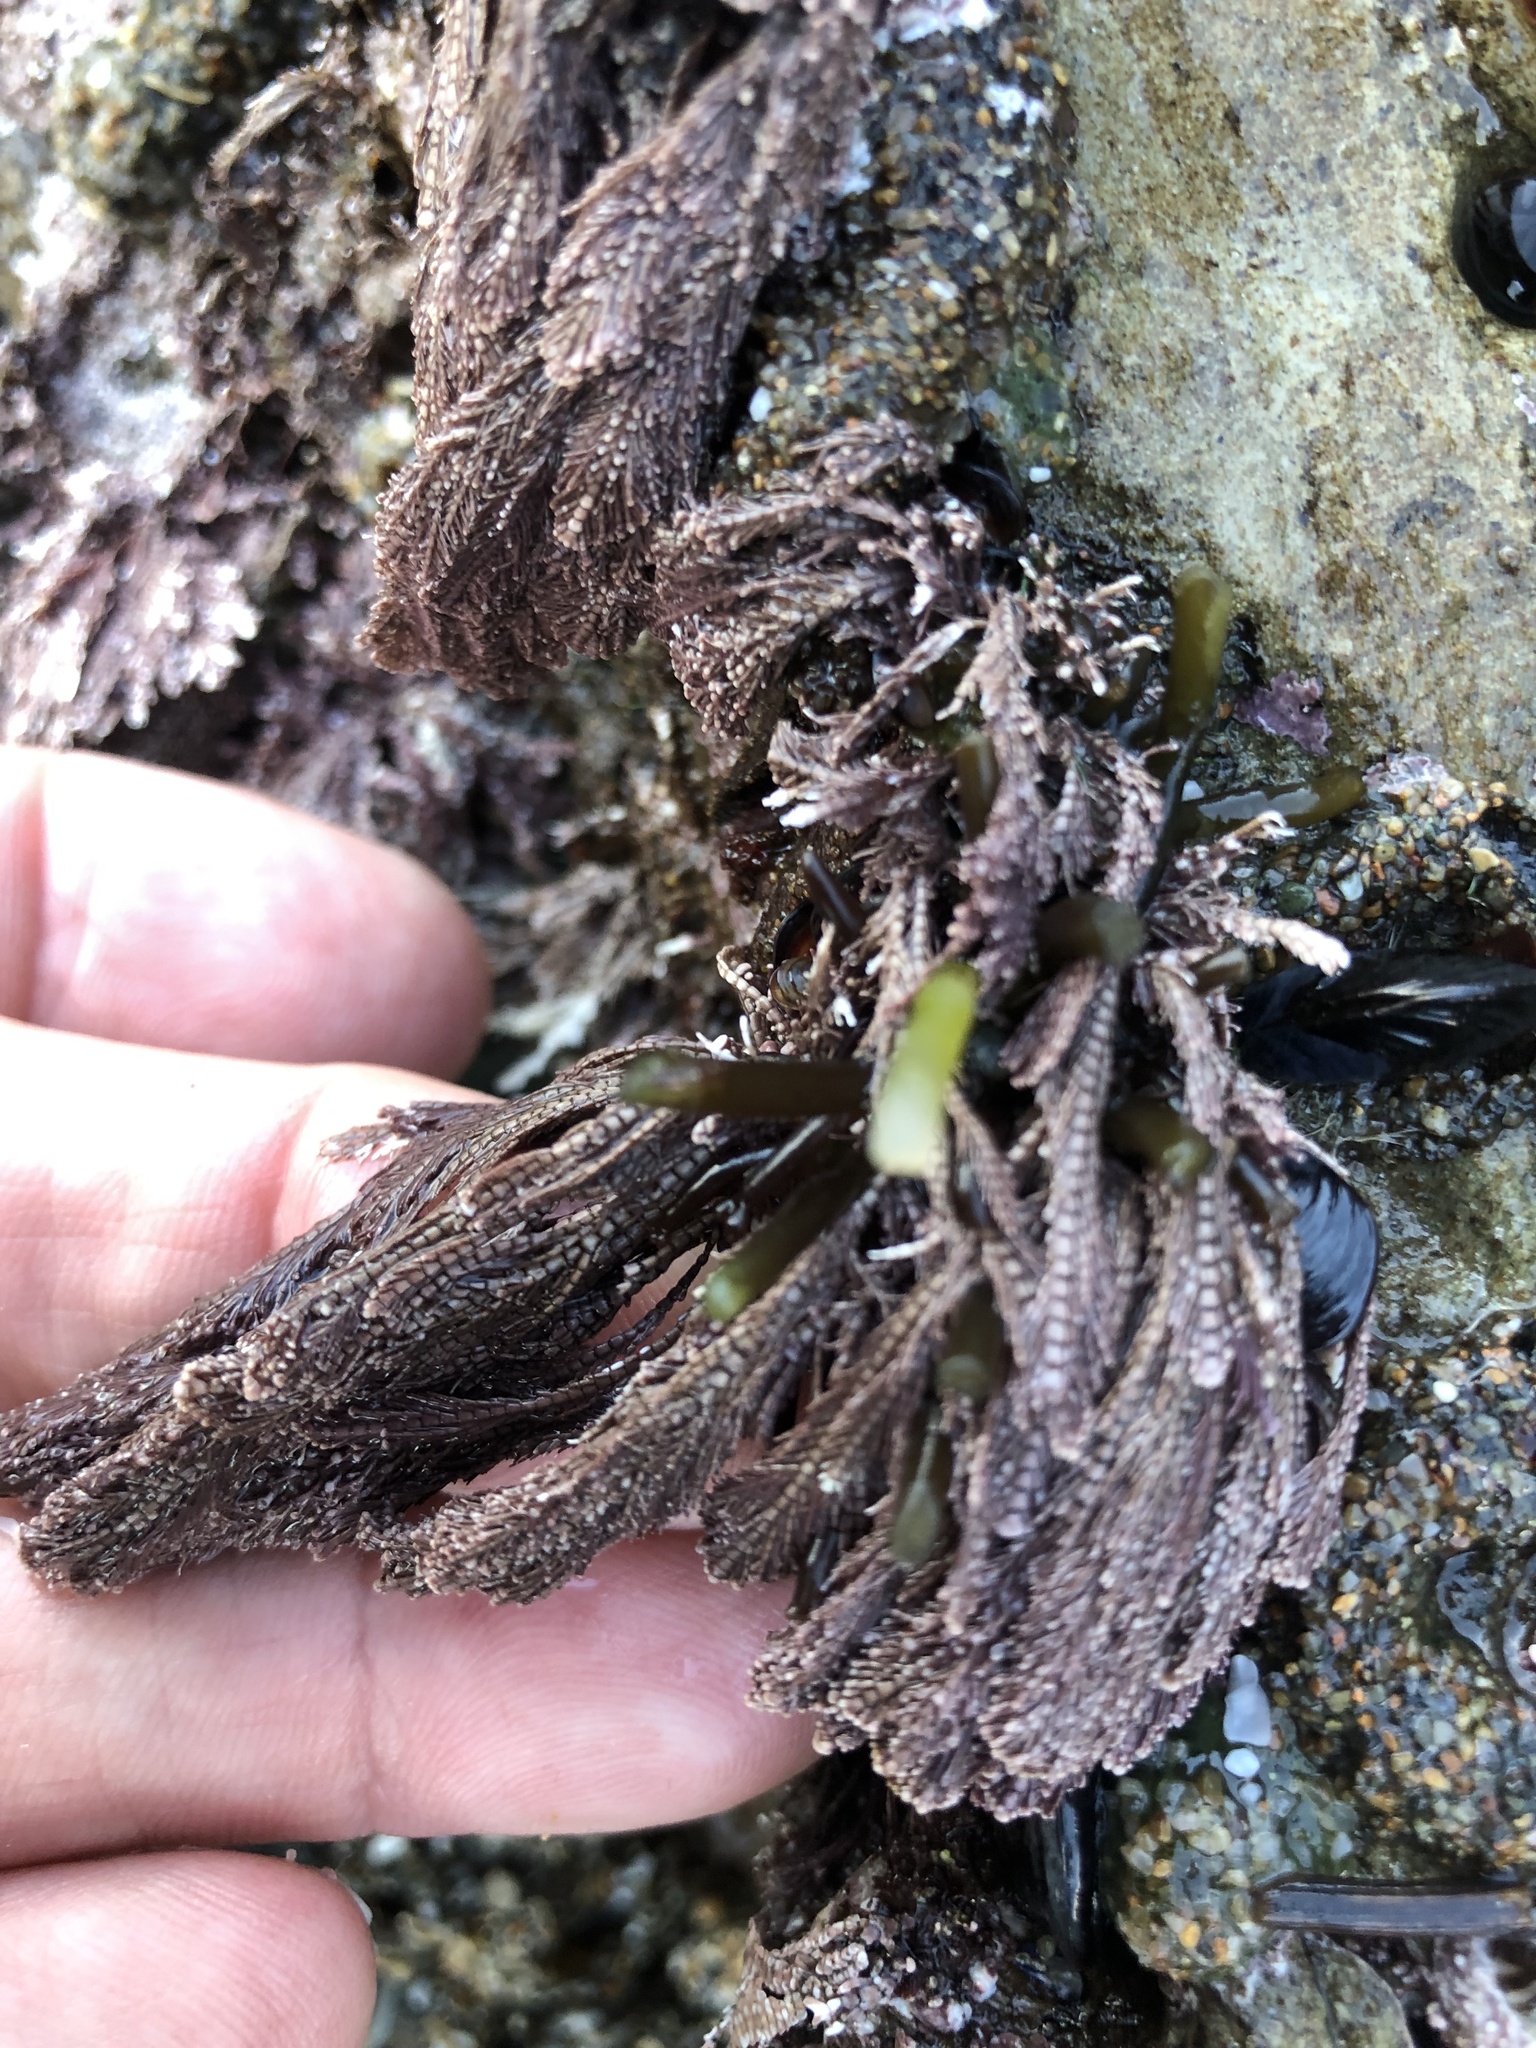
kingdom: Plantae
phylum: Rhodophyta
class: Florideophyceae
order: Corallinales
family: Corallinaceae
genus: Corallina
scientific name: Corallina vancouveriensis
